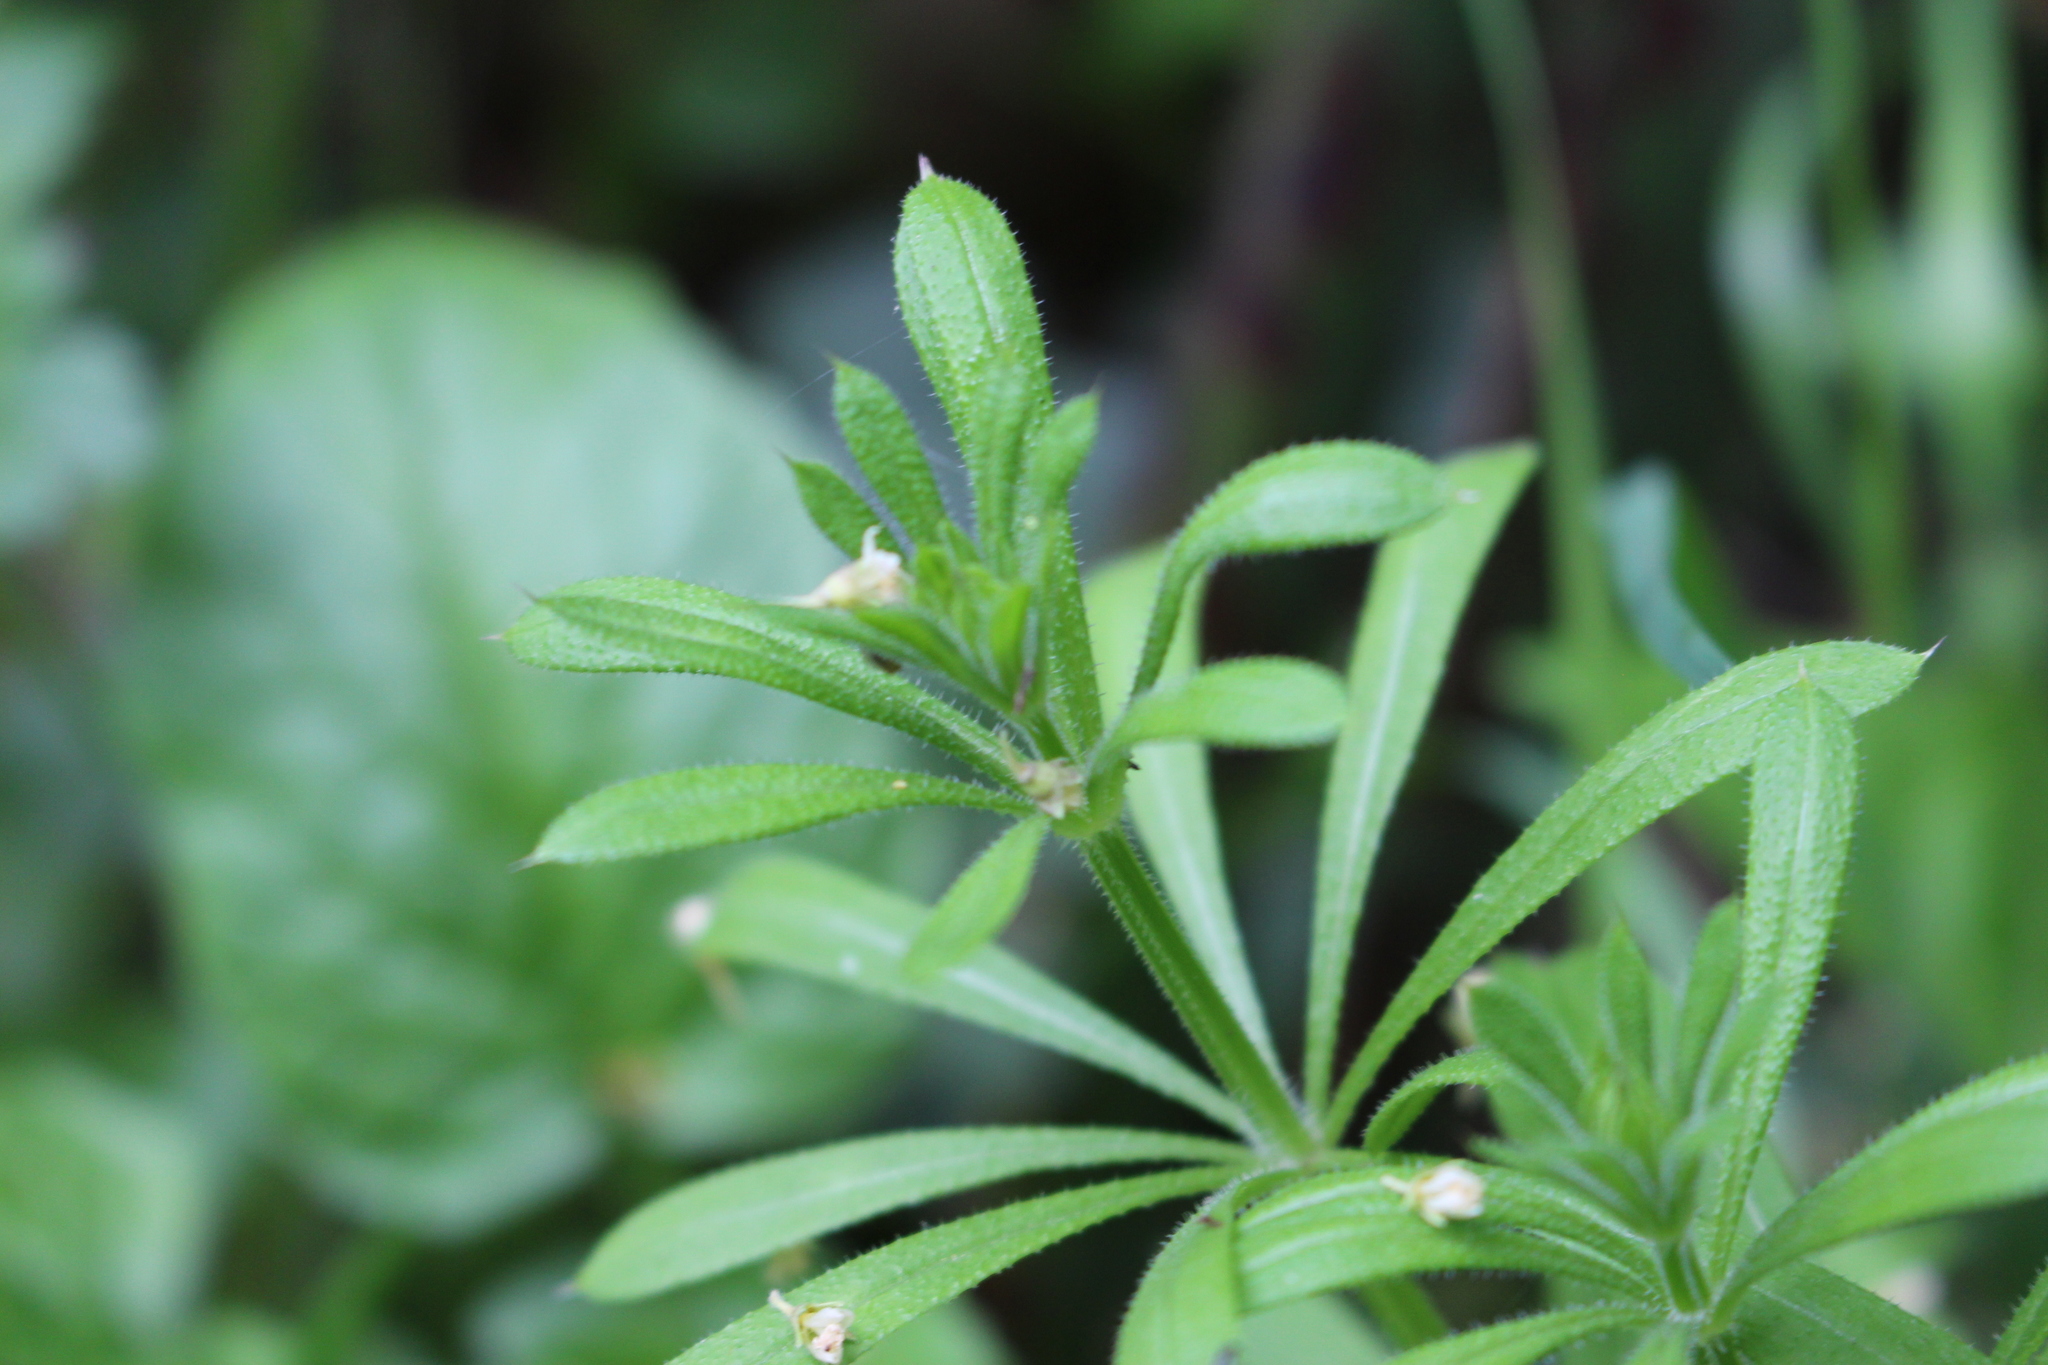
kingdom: Plantae
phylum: Tracheophyta
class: Magnoliopsida
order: Gentianales
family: Rubiaceae
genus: Galium
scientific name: Galium aparine
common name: Cleavers
